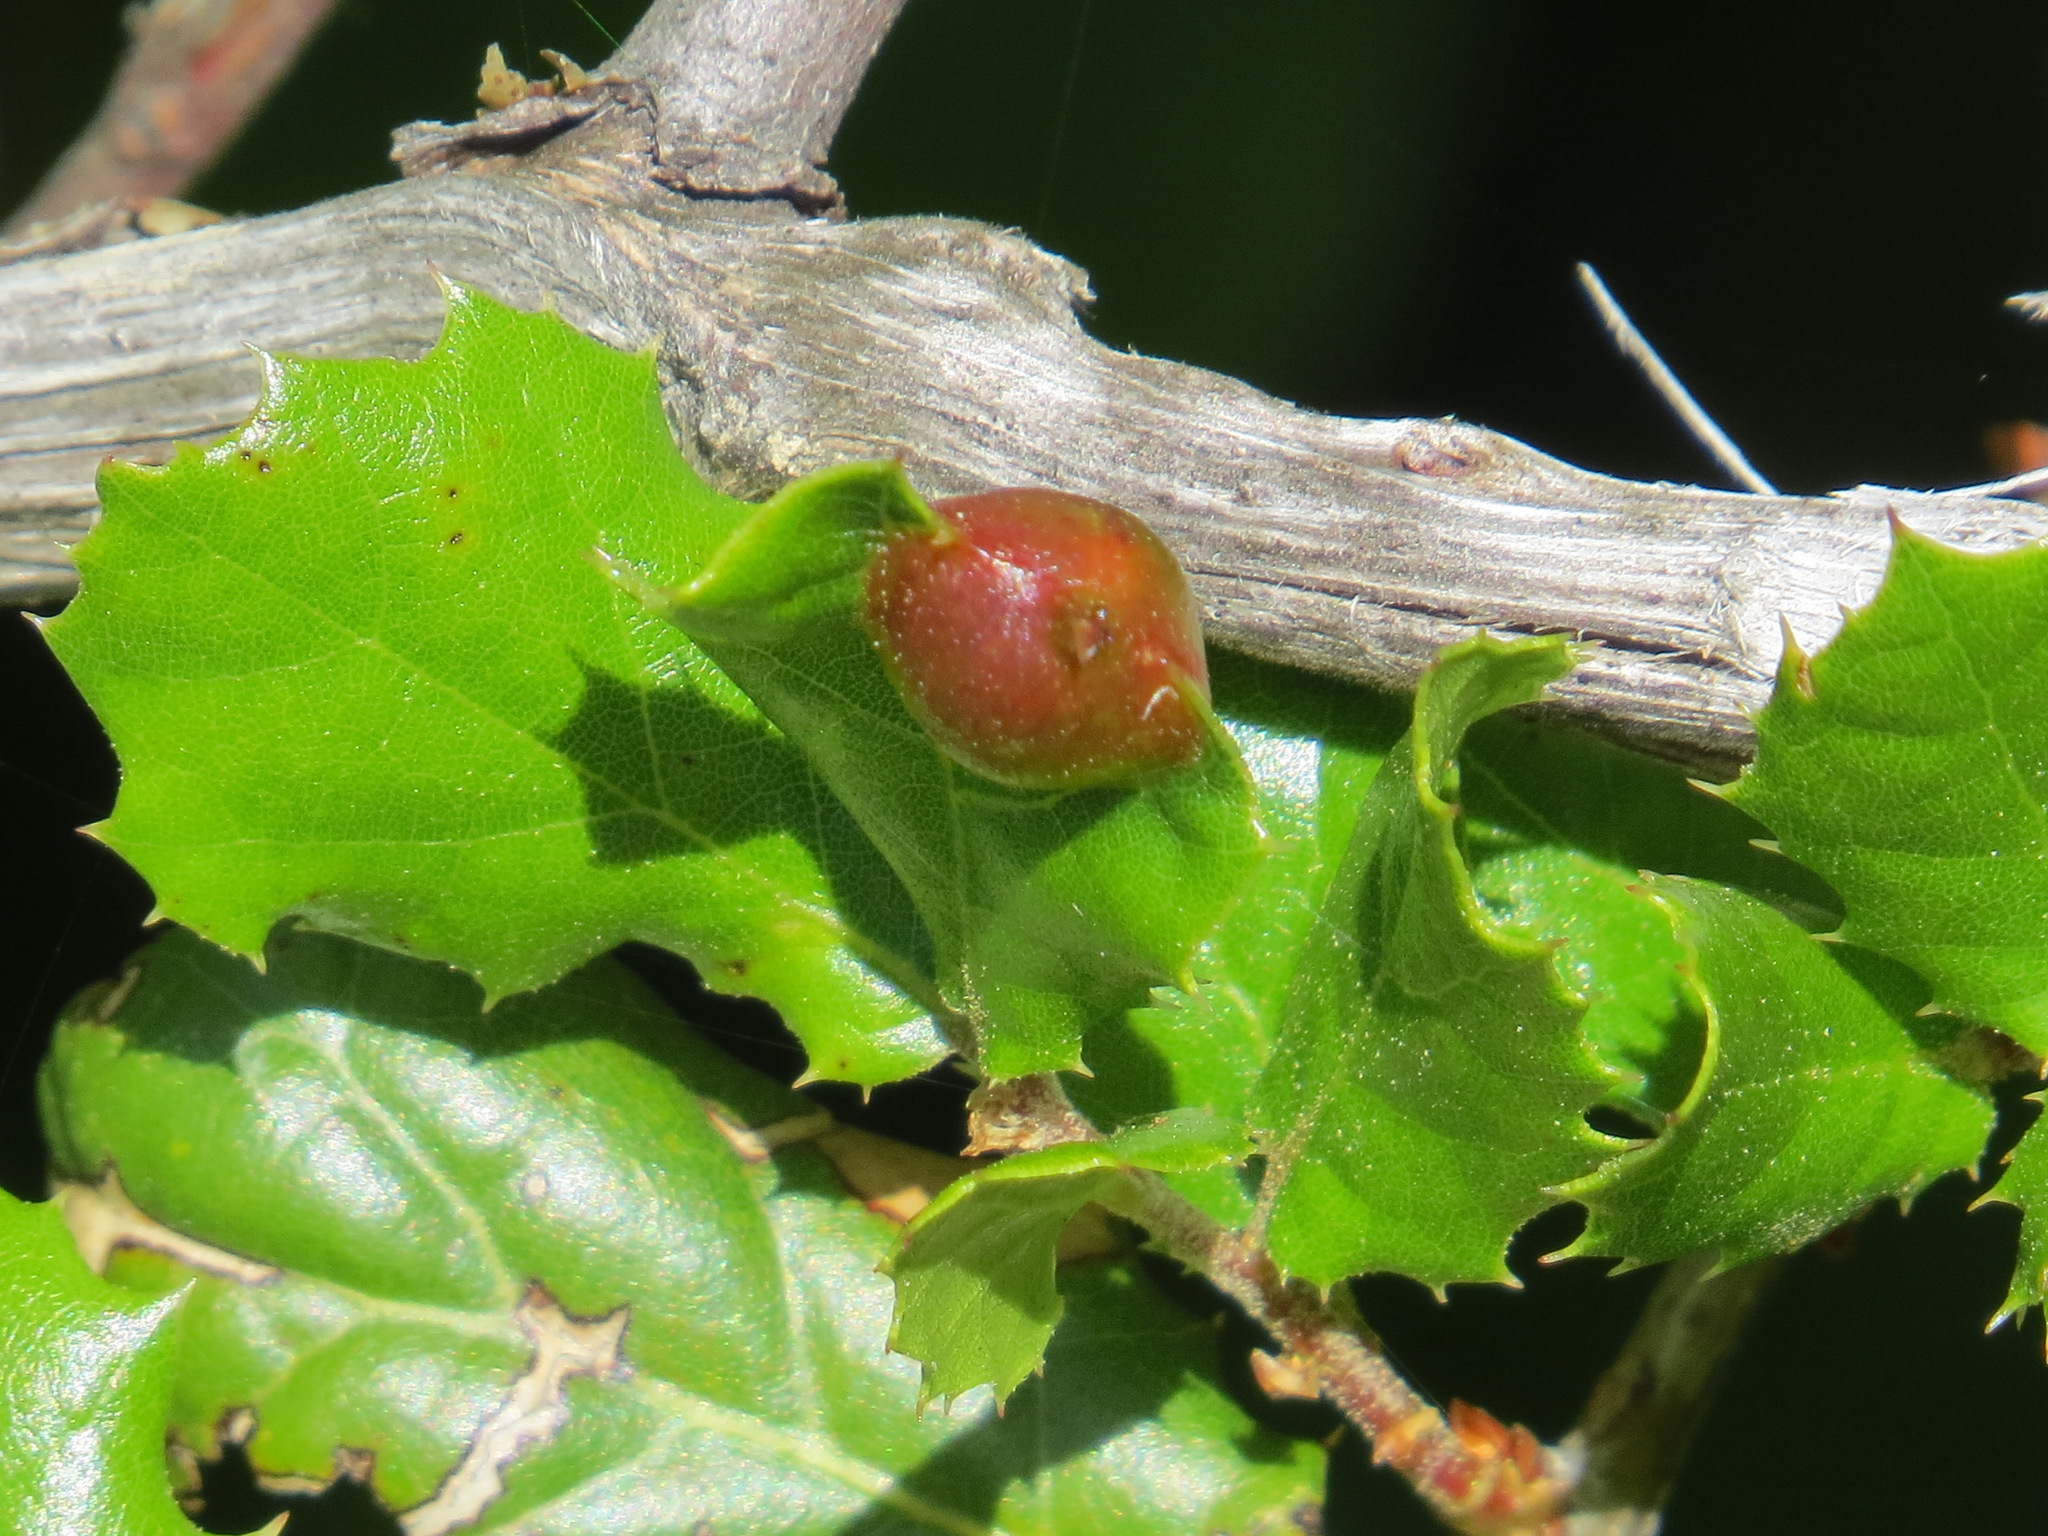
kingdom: Animalia
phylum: Arthropoda
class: Insecta
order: Hymenoptera
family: Cynipidae
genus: Callirhytis
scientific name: Callirhytis
